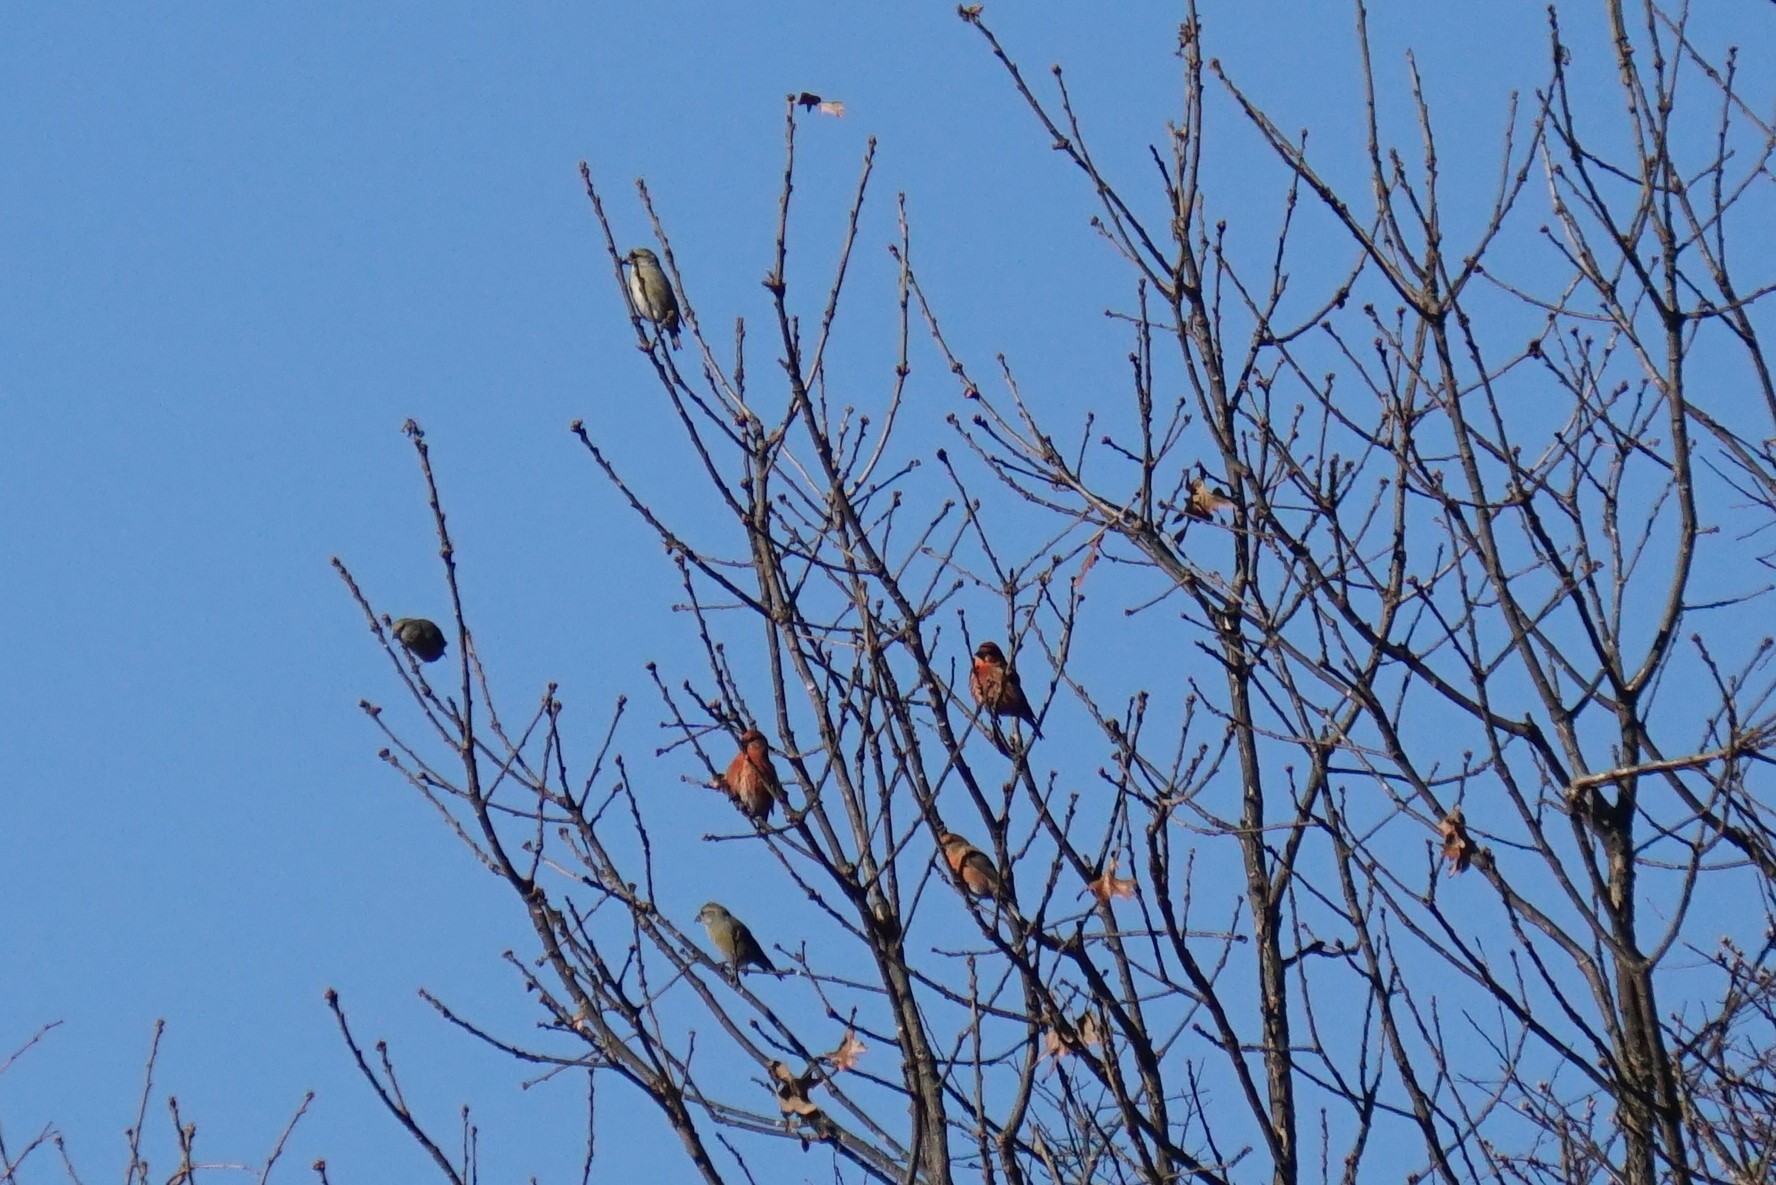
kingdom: Animalia
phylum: Chordata
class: Aves
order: Passeriformes
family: Fringillidae
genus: Loxia
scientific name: Loxia curvirostra
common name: Red crossbill
